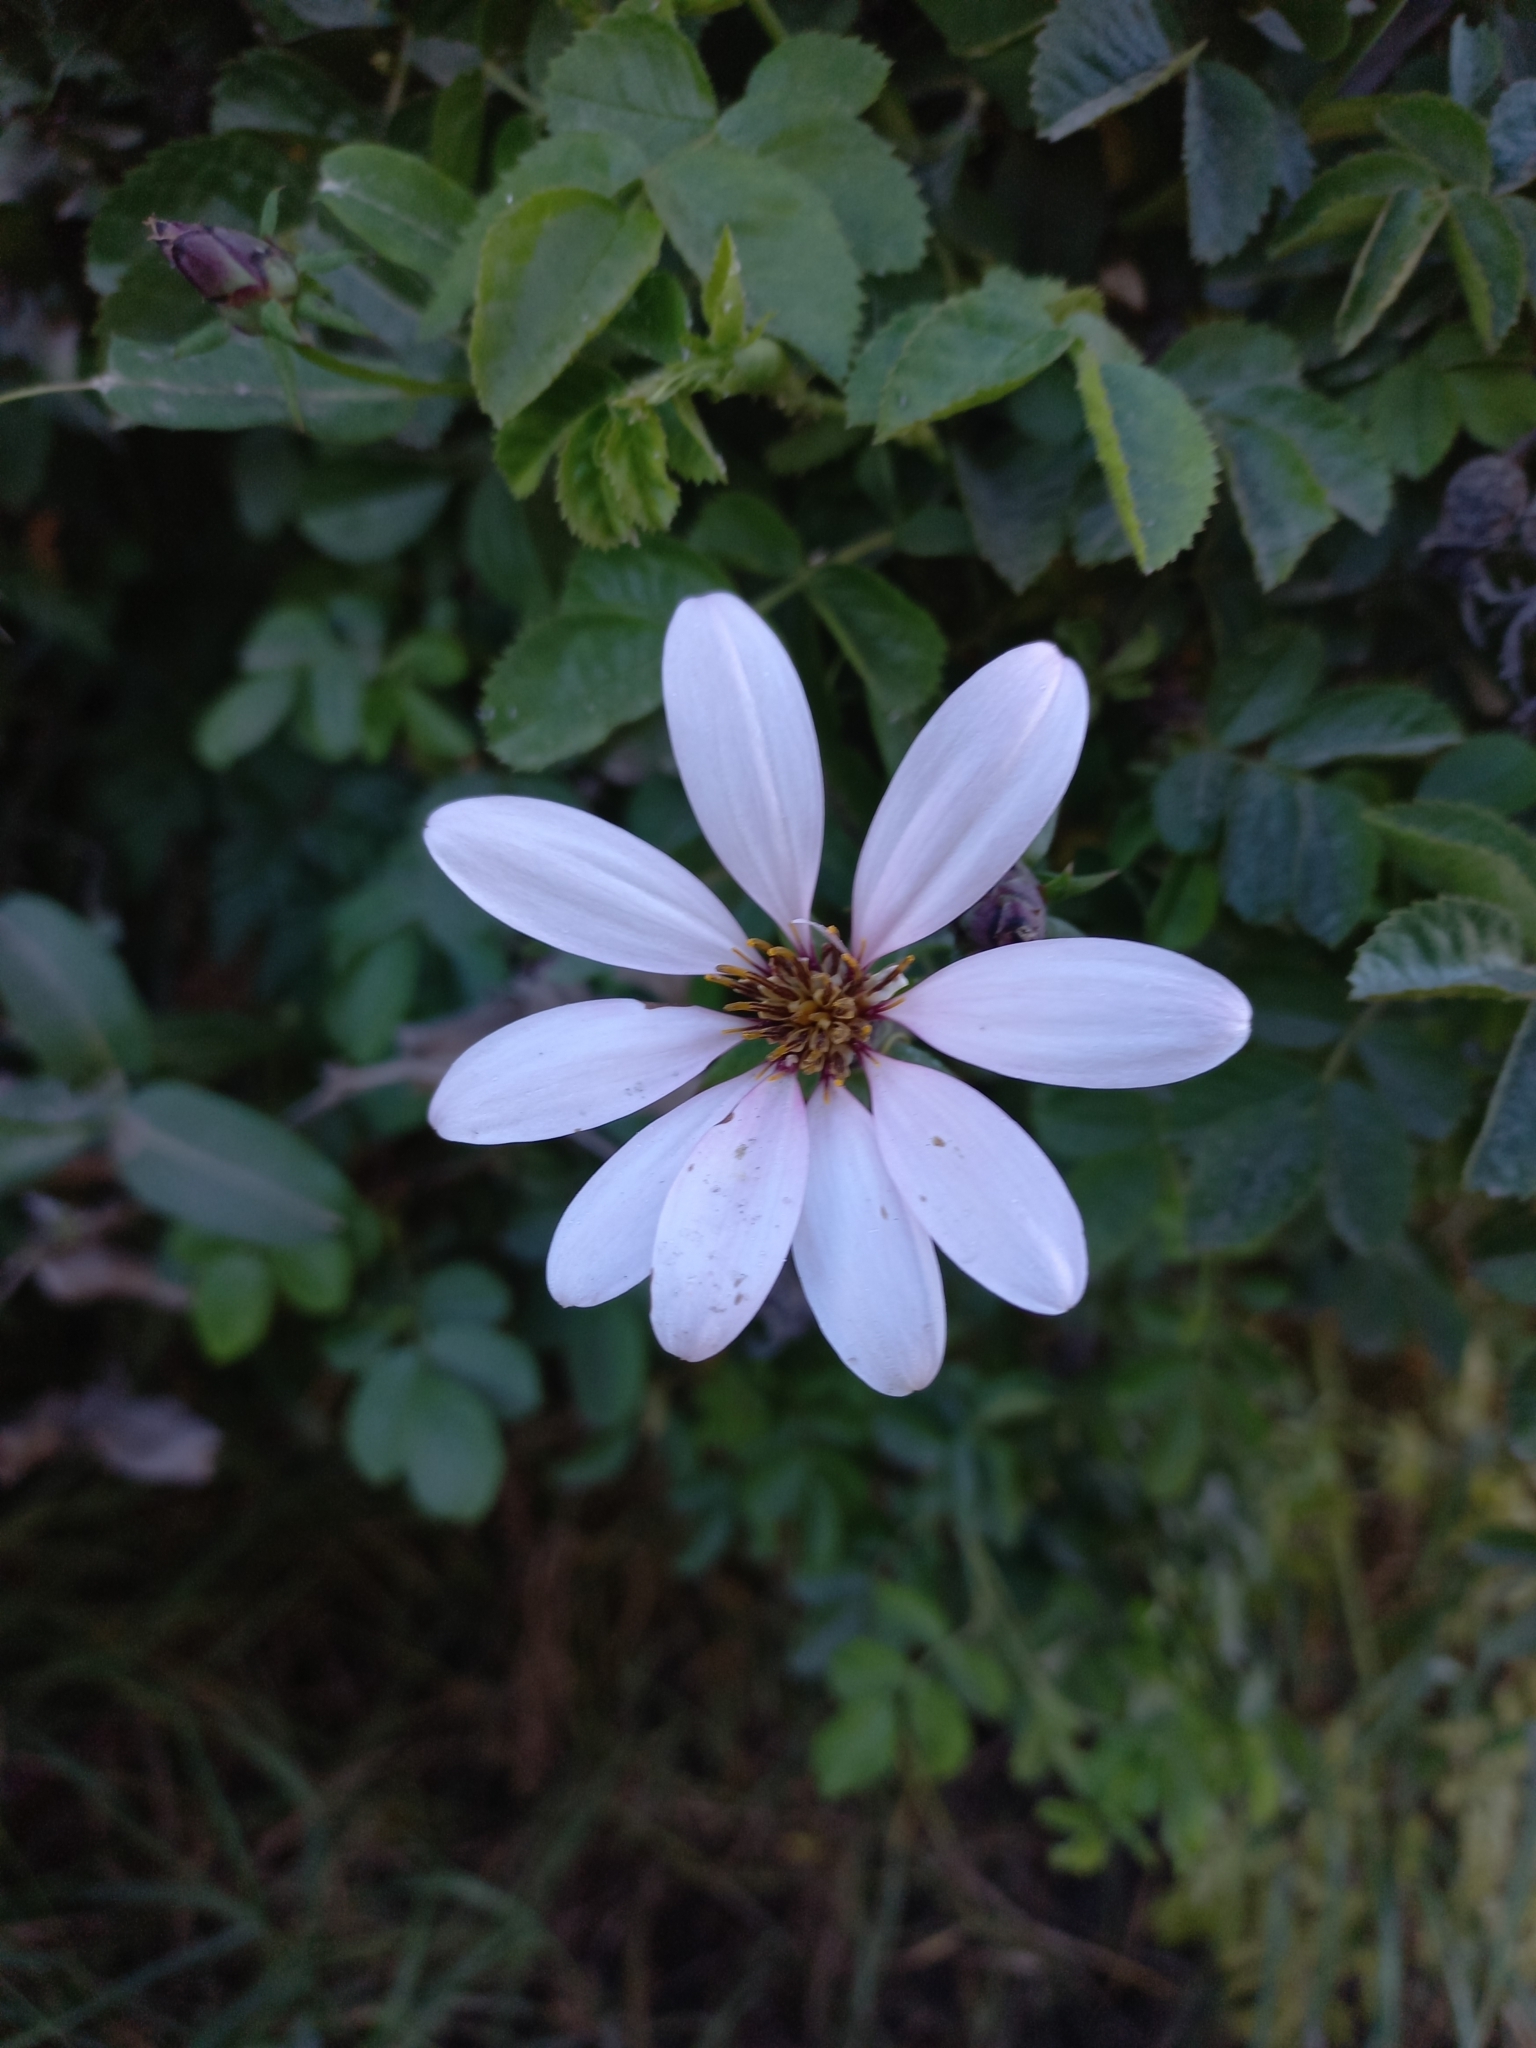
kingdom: Plantae
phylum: Tracheophyta
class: Magnoliopsida
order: Asterales
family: Asteraceae
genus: Mutisia
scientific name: Mutisia spinosa
